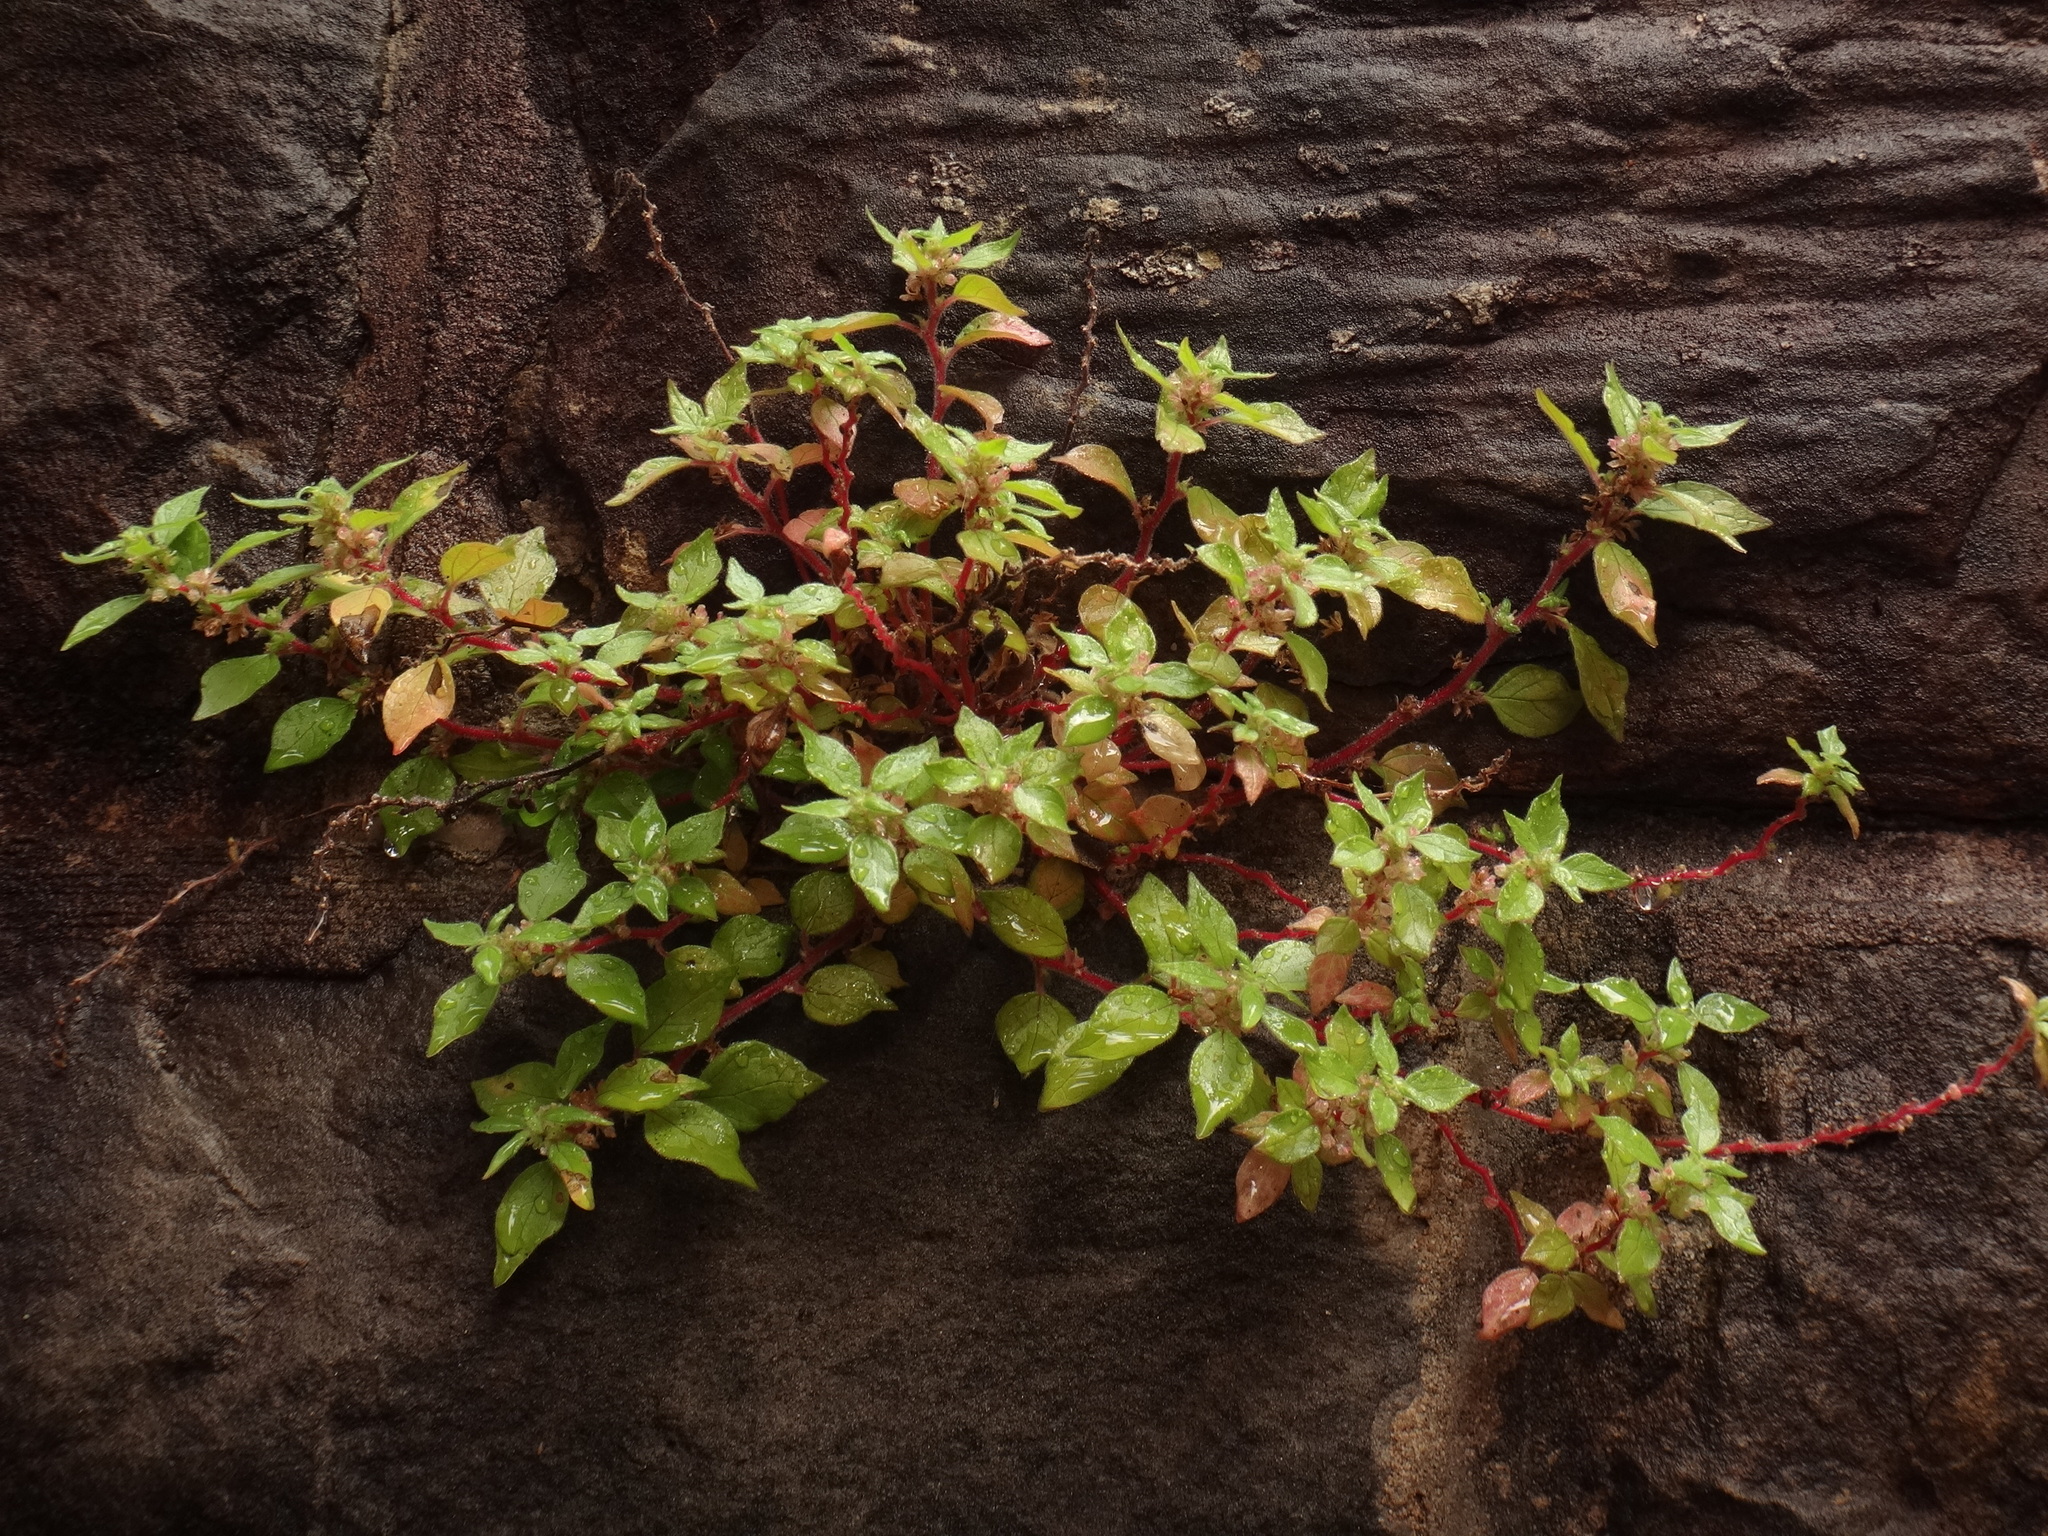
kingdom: Plantae
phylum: Tracheophyta
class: Magnoliopsida
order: Rosales
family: Urticaceae
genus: Parietaria
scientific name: Parietaria judaica
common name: Pellitory-of-the-wall
